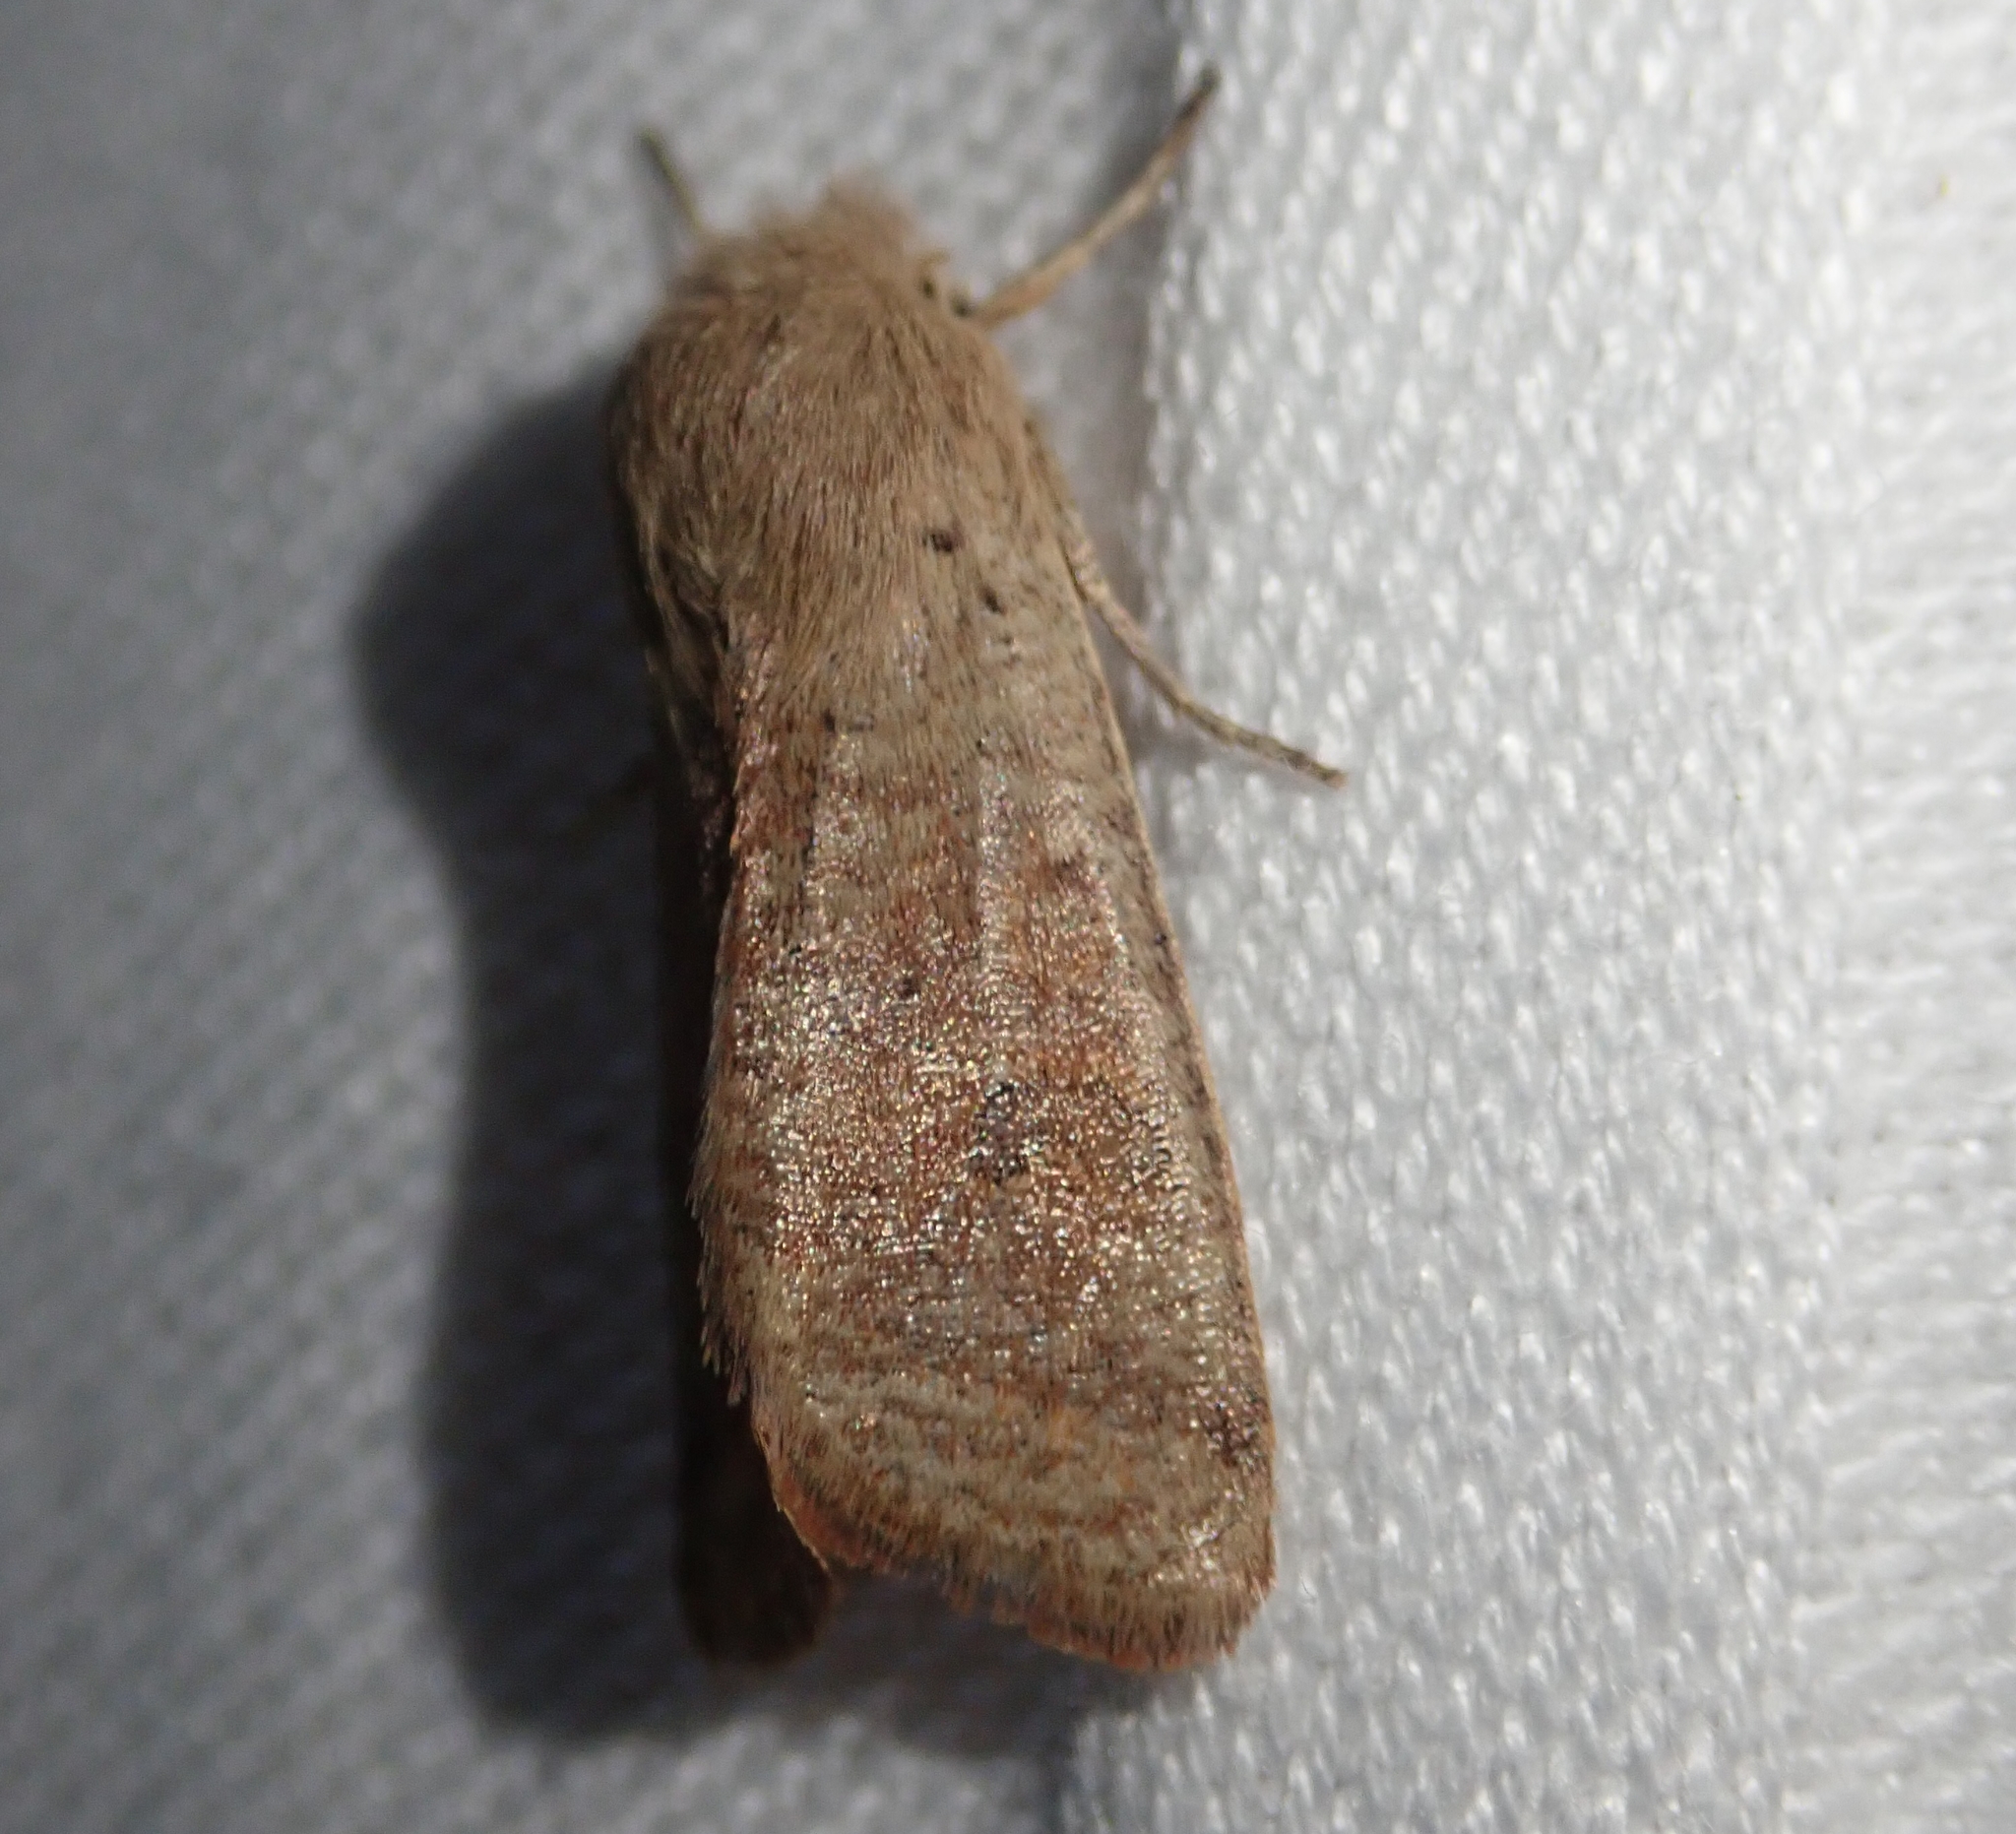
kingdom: Animalia
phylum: Arthropoda
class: Insecta
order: Lepidoptera
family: Noctuidae
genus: Orthosia
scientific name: Orthosia cruda
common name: Small quaker
